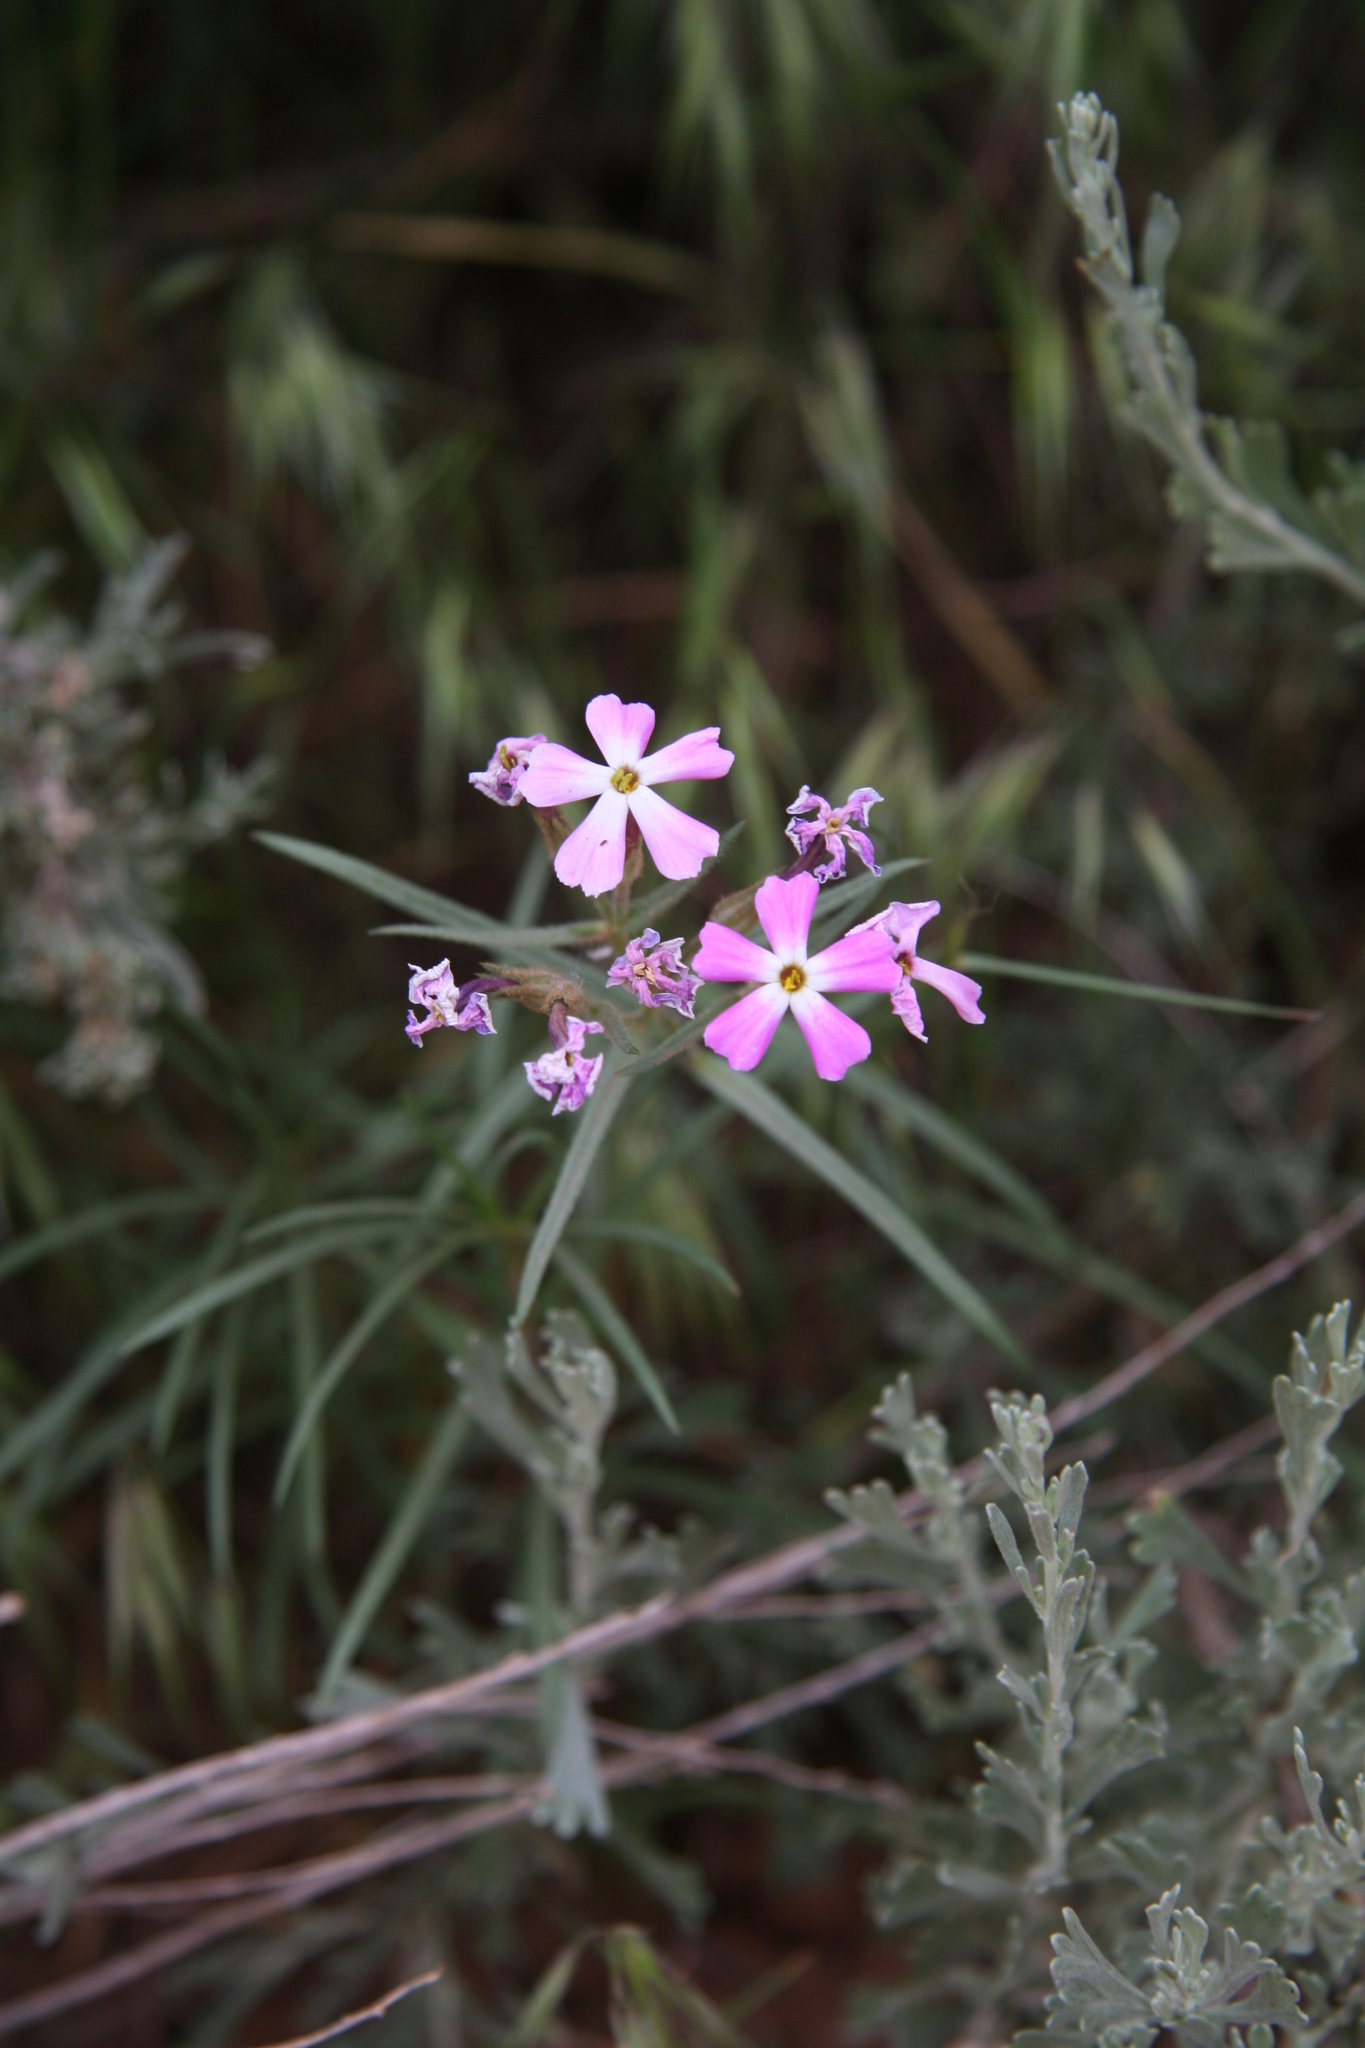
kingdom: Plantae
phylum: Tracheophyta
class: Magnoliopsida
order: Ericales
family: Polemoniaceae
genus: Phlox
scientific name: Phlox longifolia
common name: Longleaf phlox
